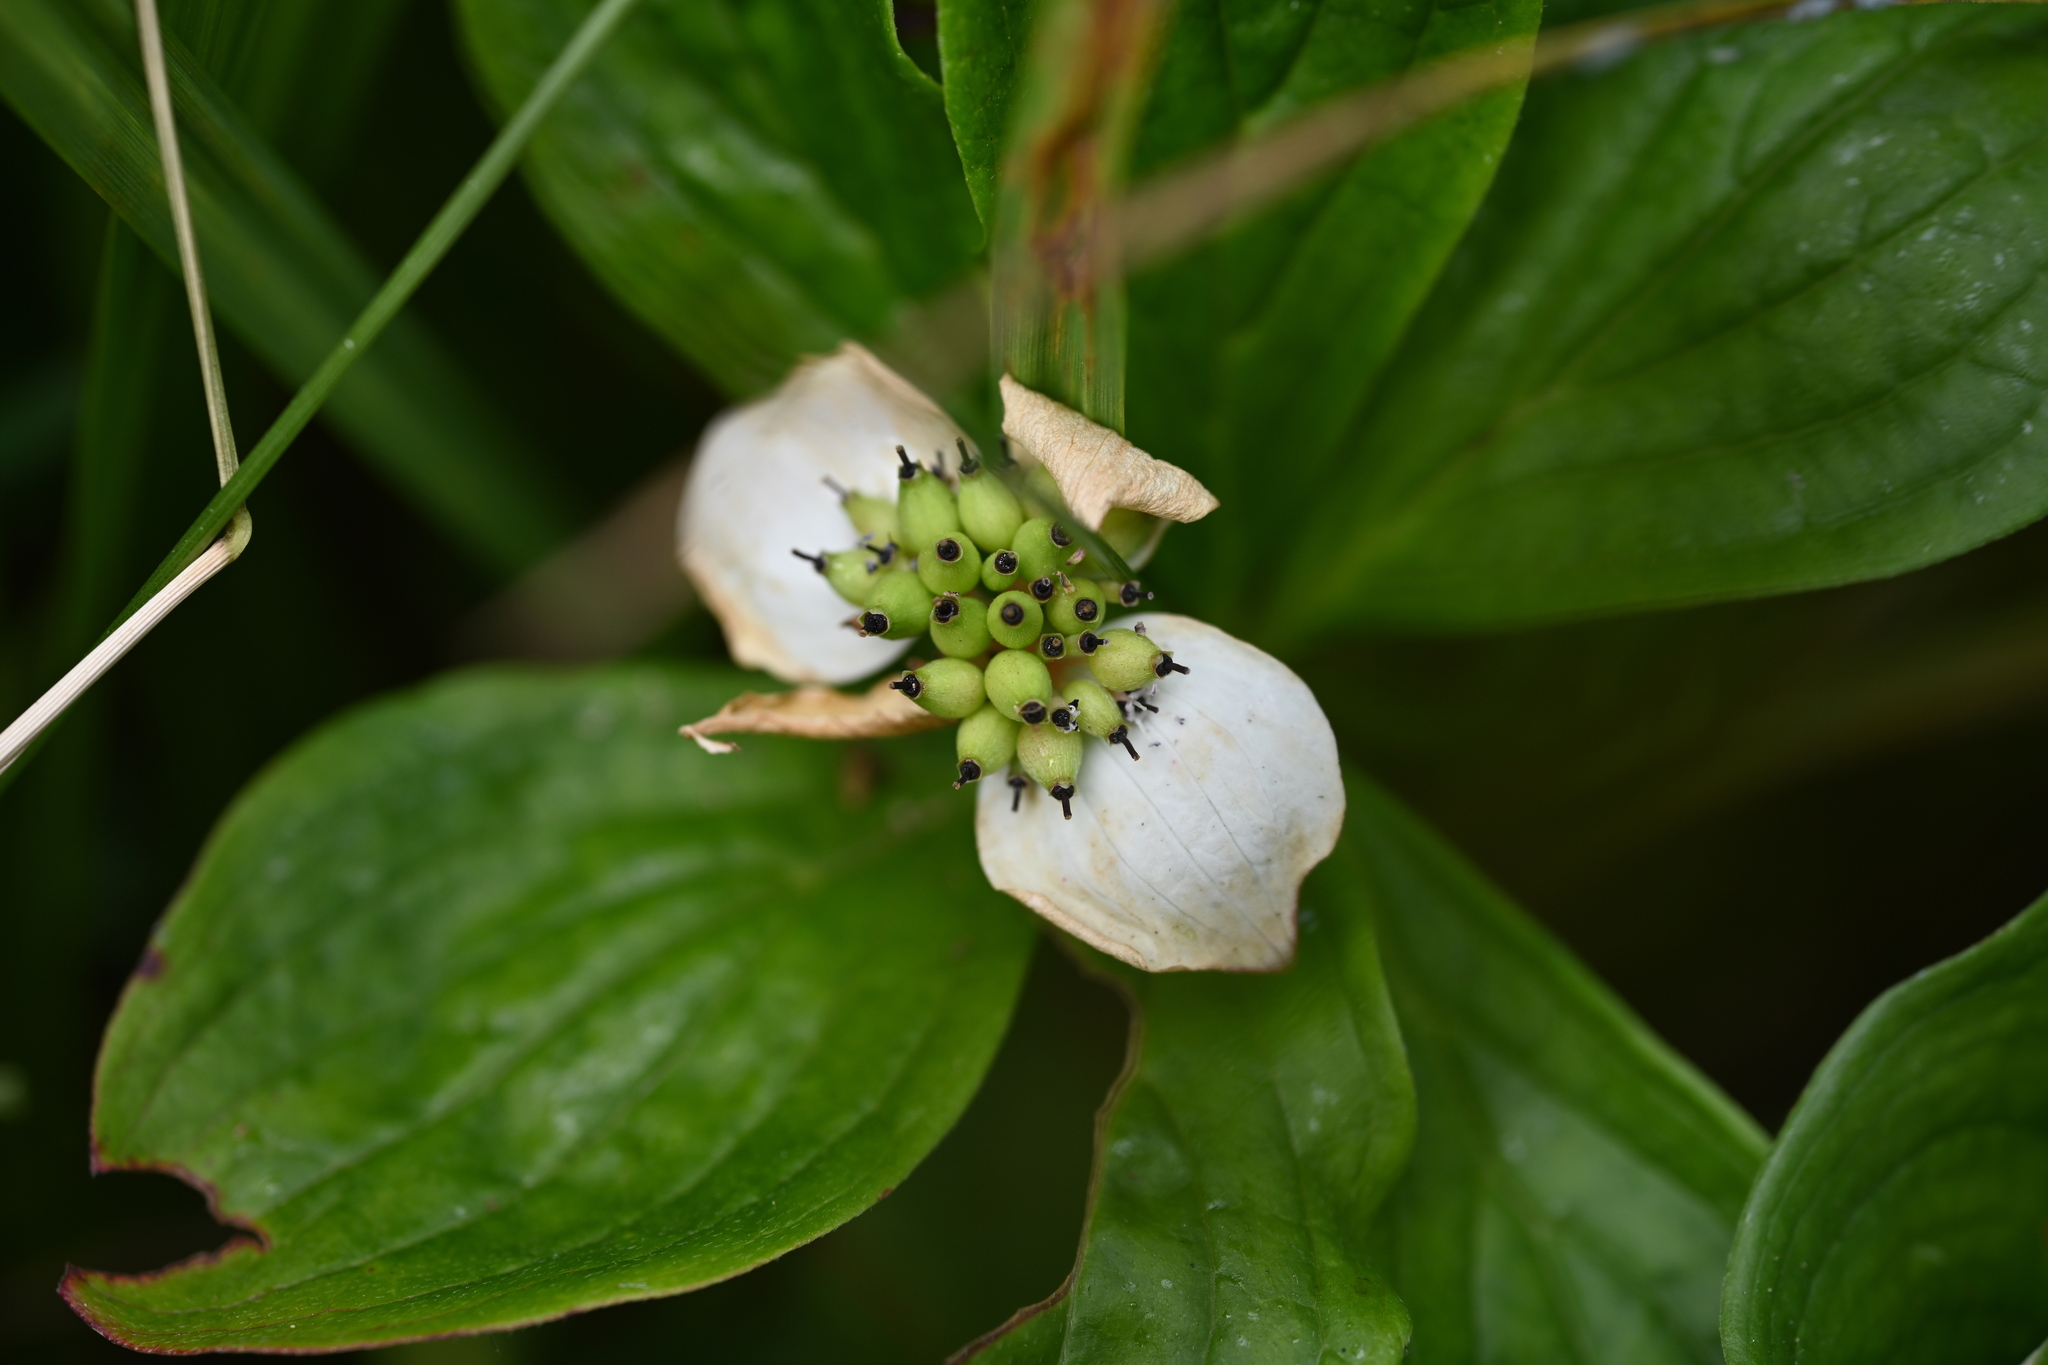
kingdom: Plantae
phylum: Tracheophyta
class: Magnoliopsida
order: Cornales
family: Cornaceae
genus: Cornus
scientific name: Cornus unalaschkensis
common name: Alaska bunchberry
